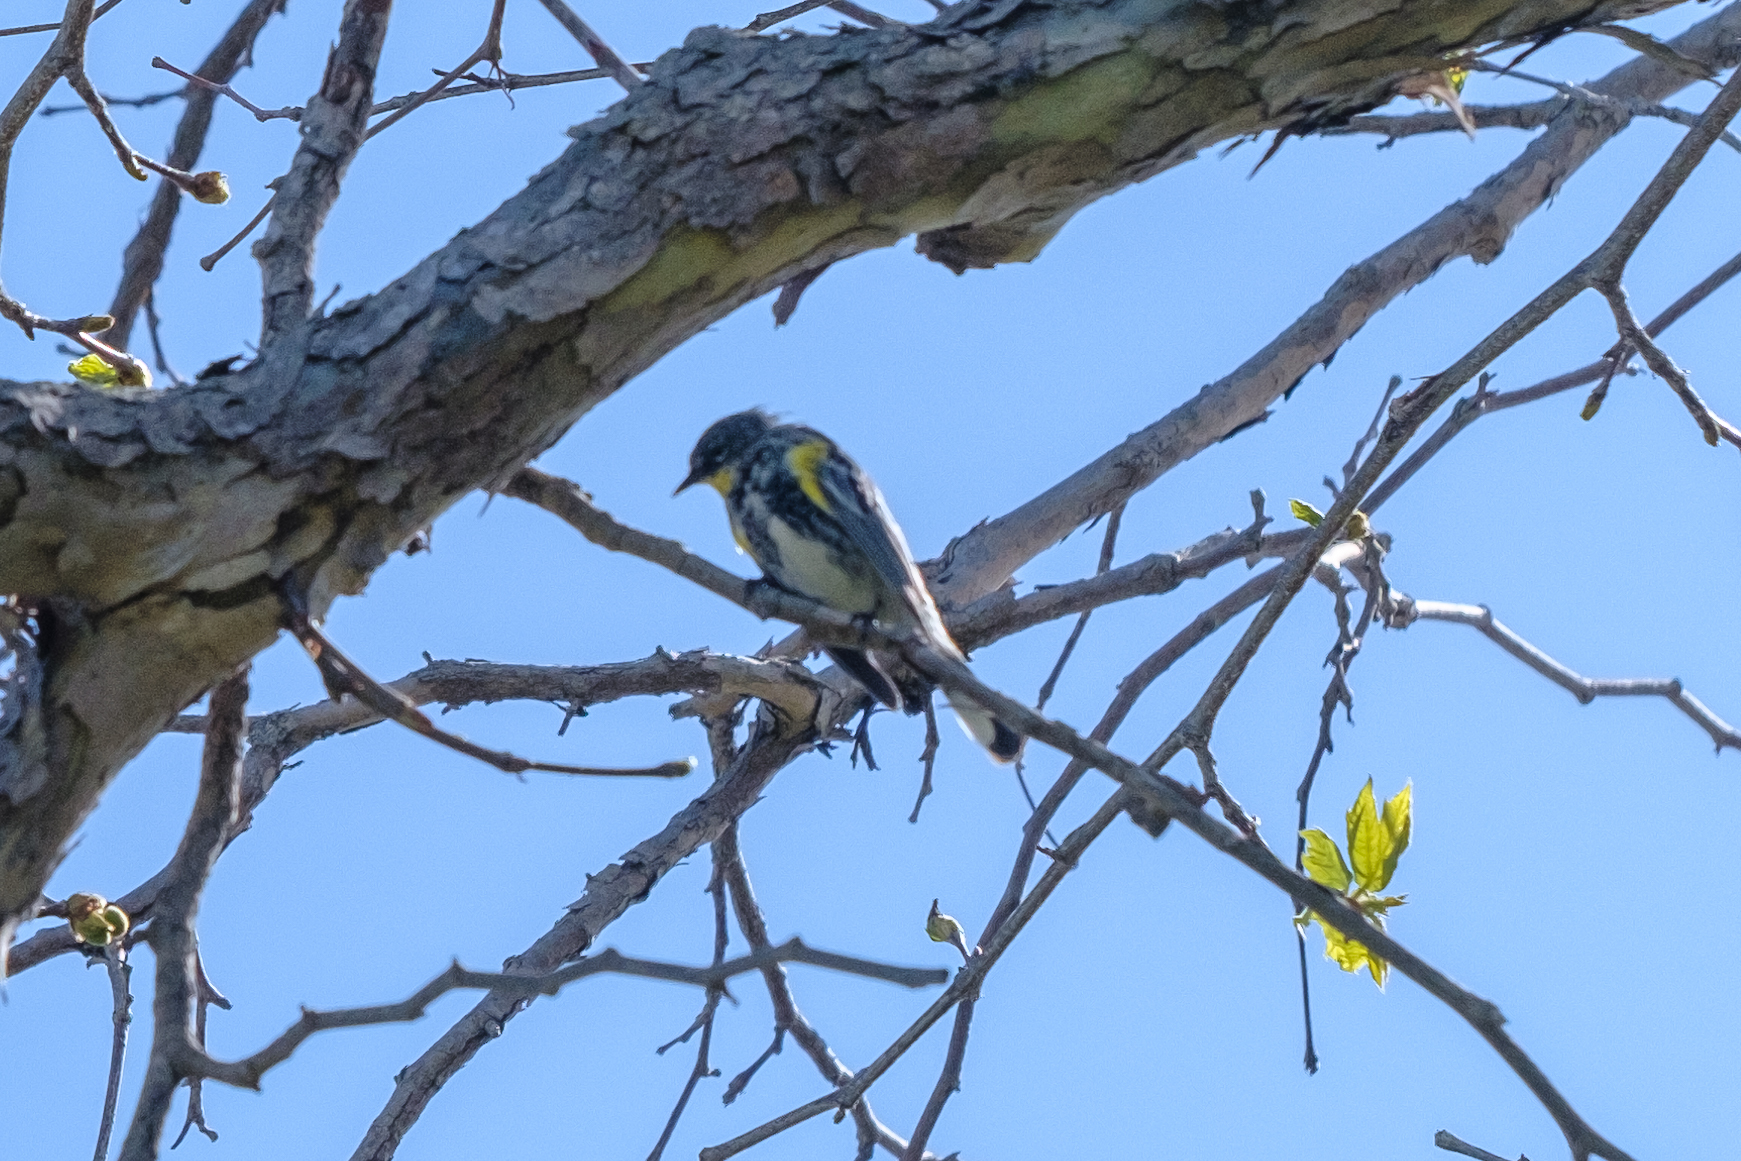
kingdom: Animalia
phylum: Chordata
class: Aves
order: Passeriformes
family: Parulidae
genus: Setophaga
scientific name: Setophaga coronata
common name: Myrtle warbler
